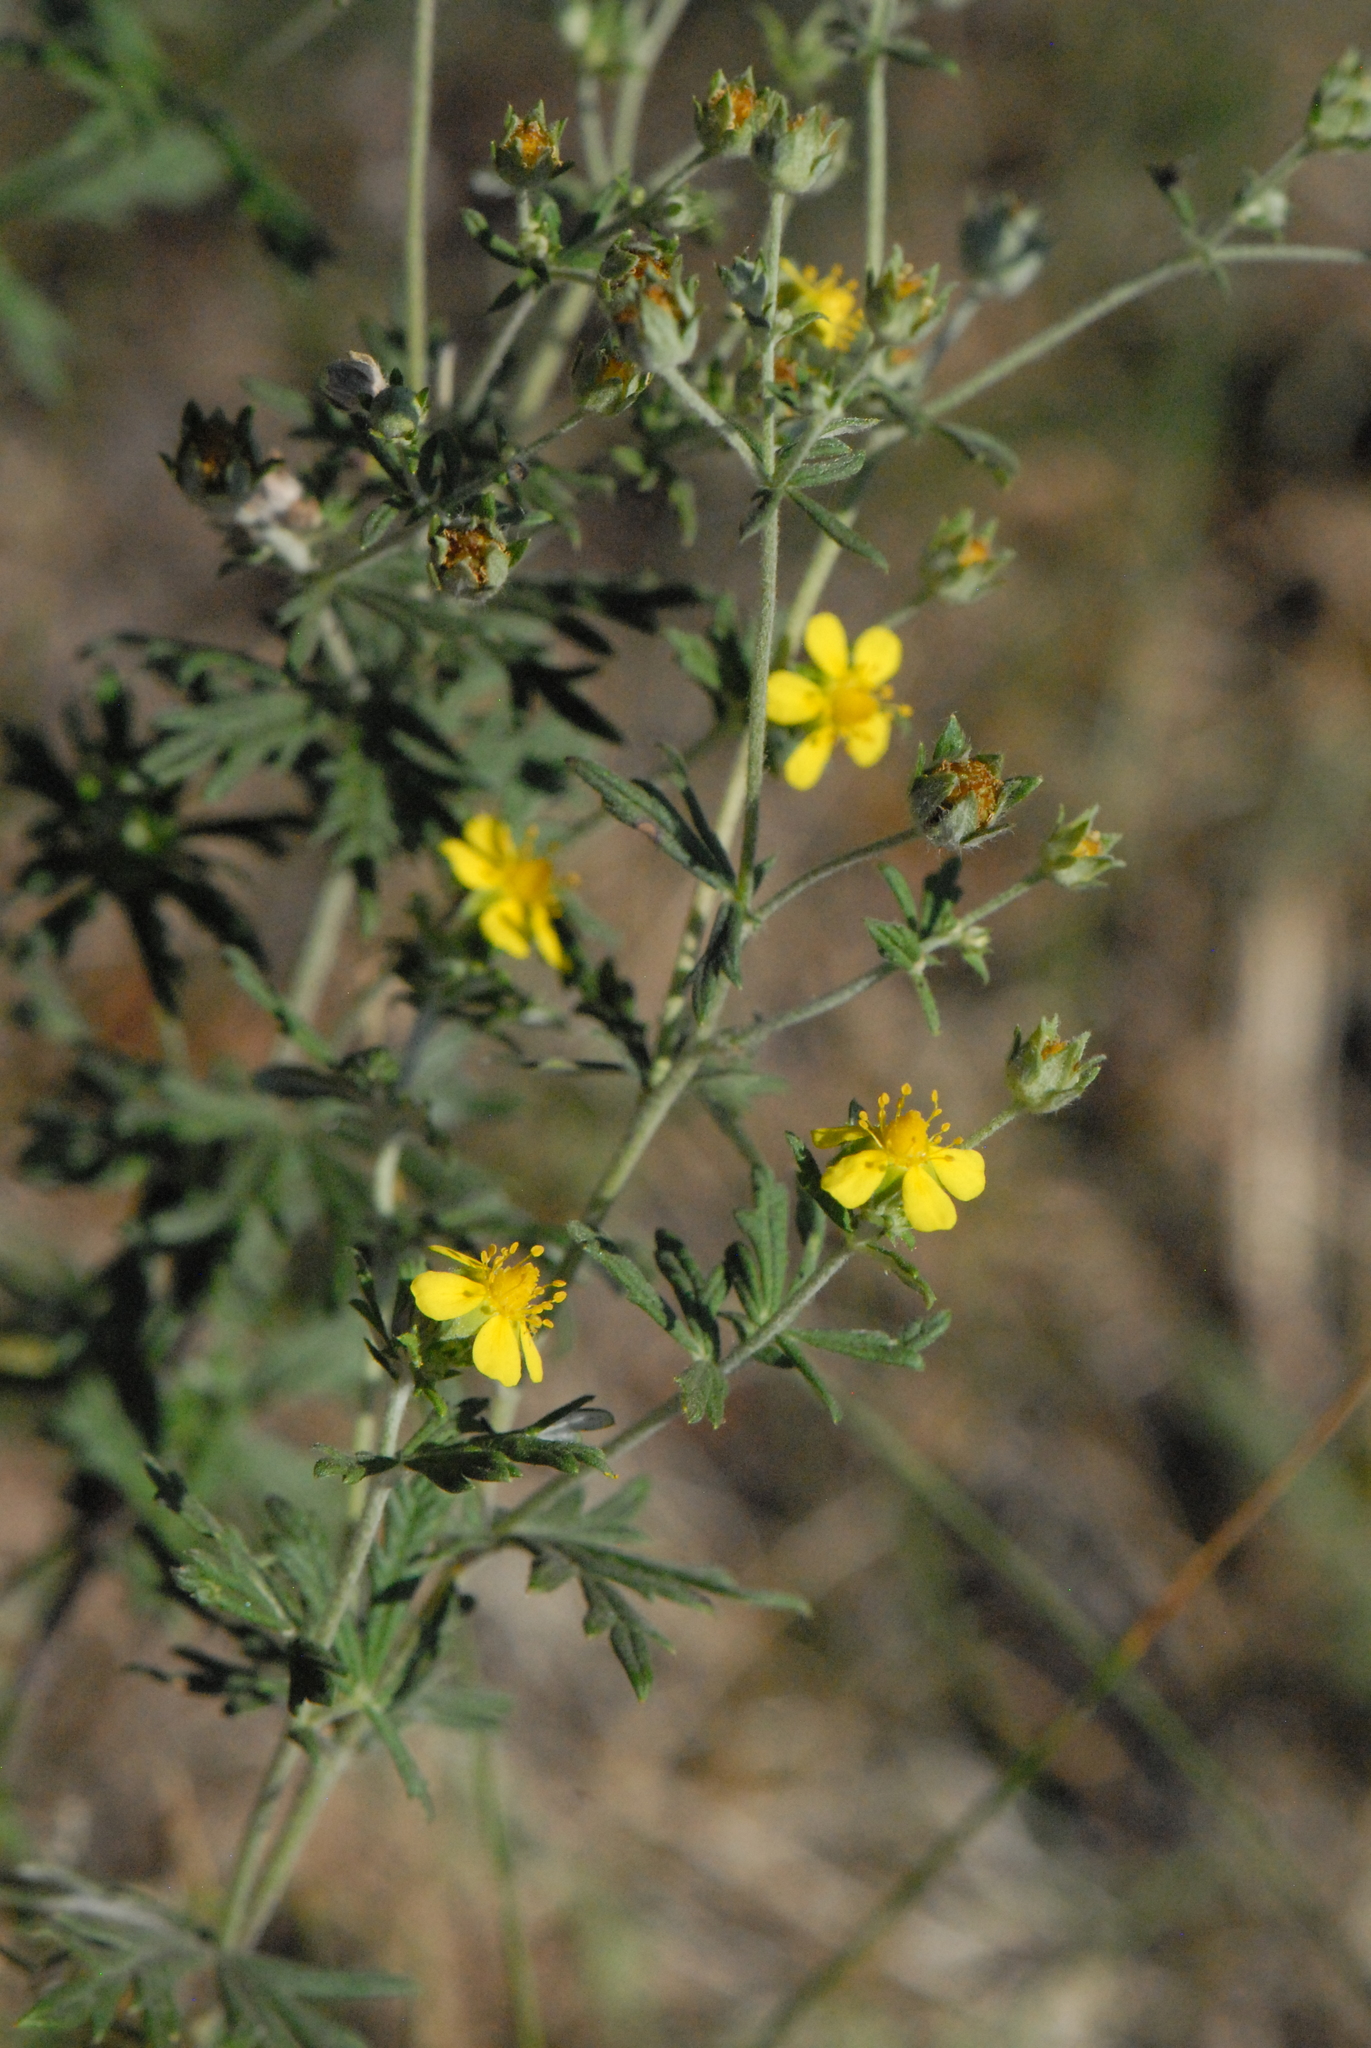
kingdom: Plantae
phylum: Tracheophyta
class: Magnoliopsida
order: Rosales
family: Rosaceae
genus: Potentilla
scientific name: Potentilla argentea
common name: Hoary cinquefoil
